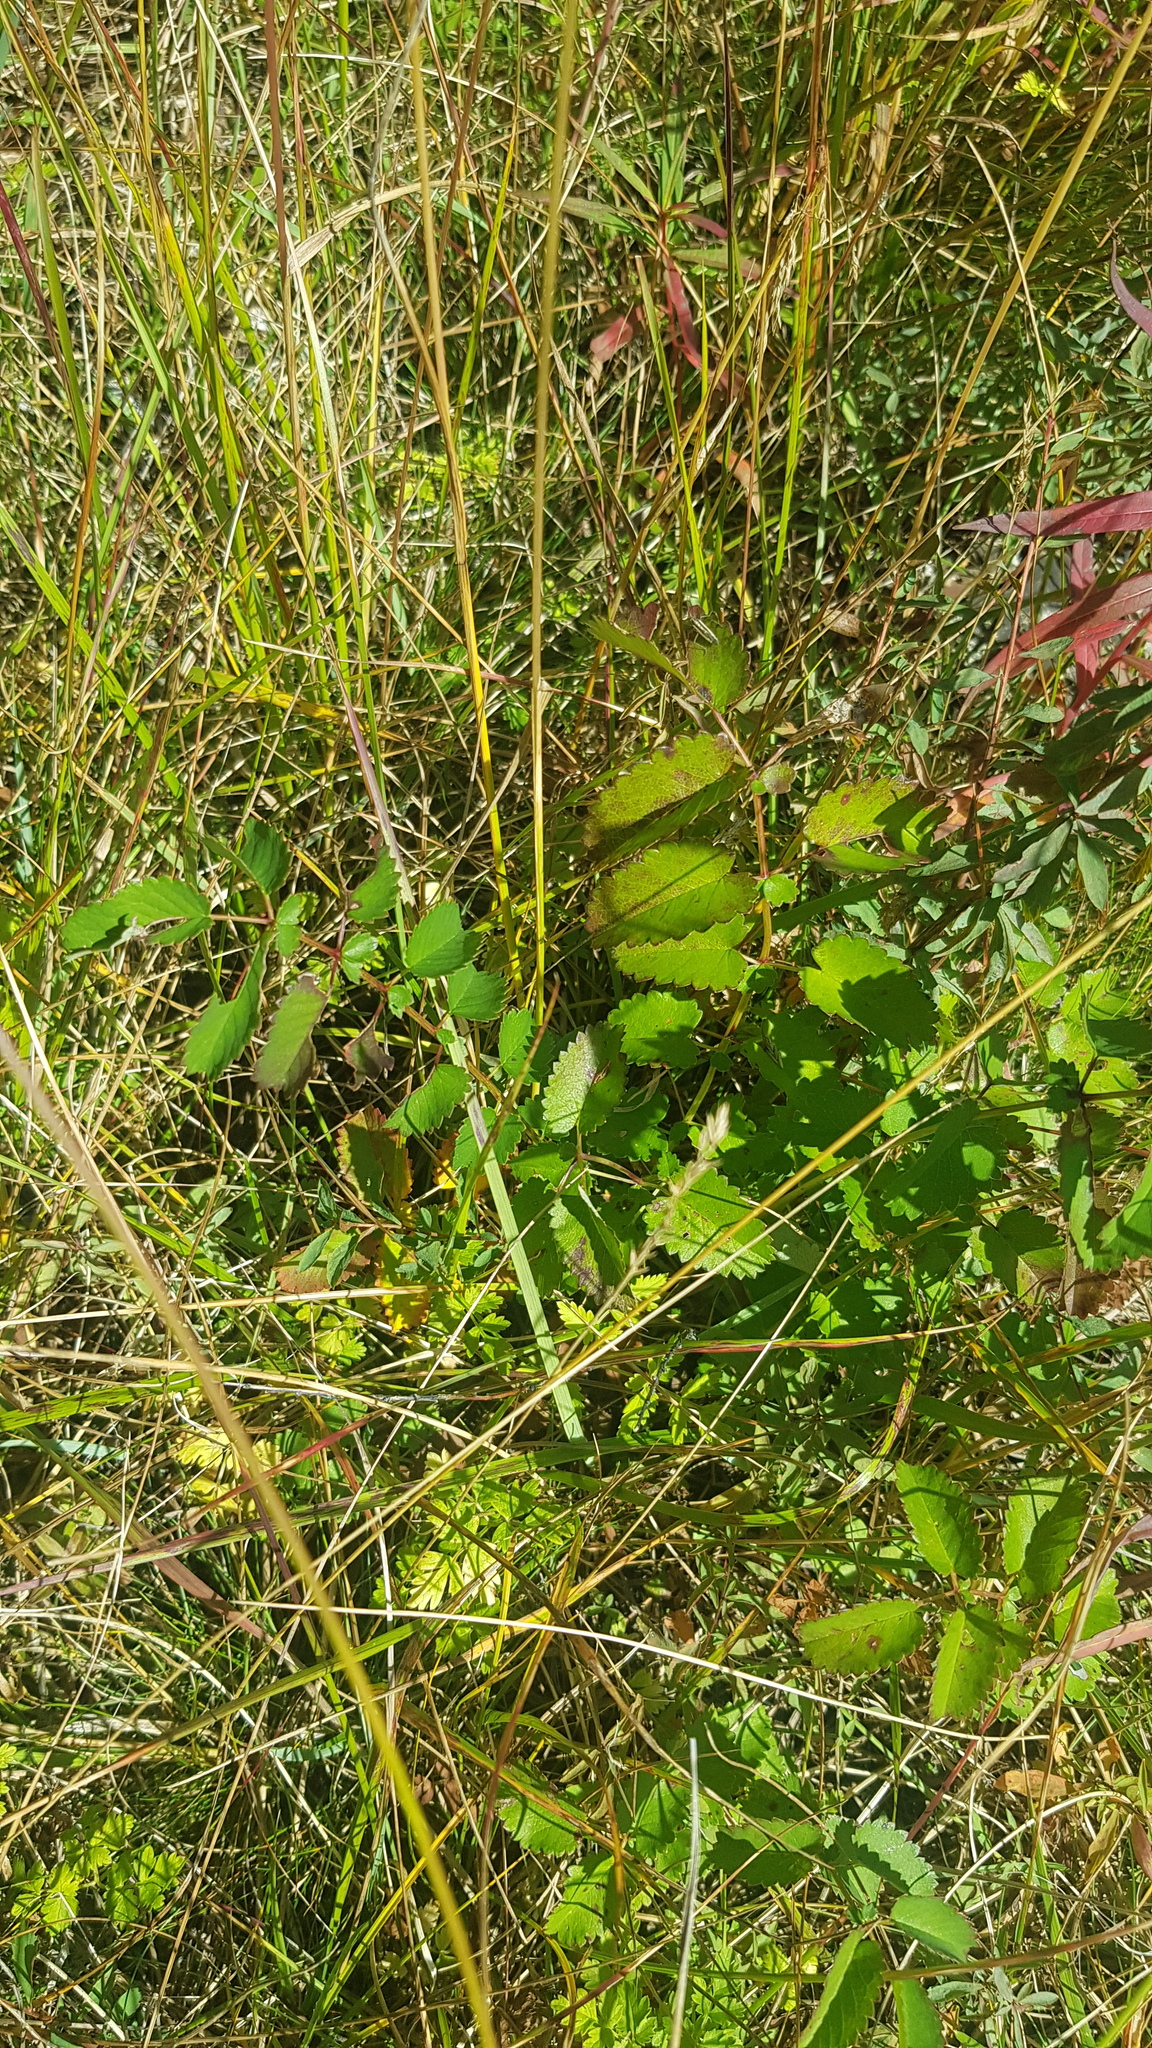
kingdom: Plantae
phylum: Tracheophyta
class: Magnoliopsida
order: Rosales
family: Rosaceae
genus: Sanguisorba
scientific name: Sanguisorba officinalis
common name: Great burnet
